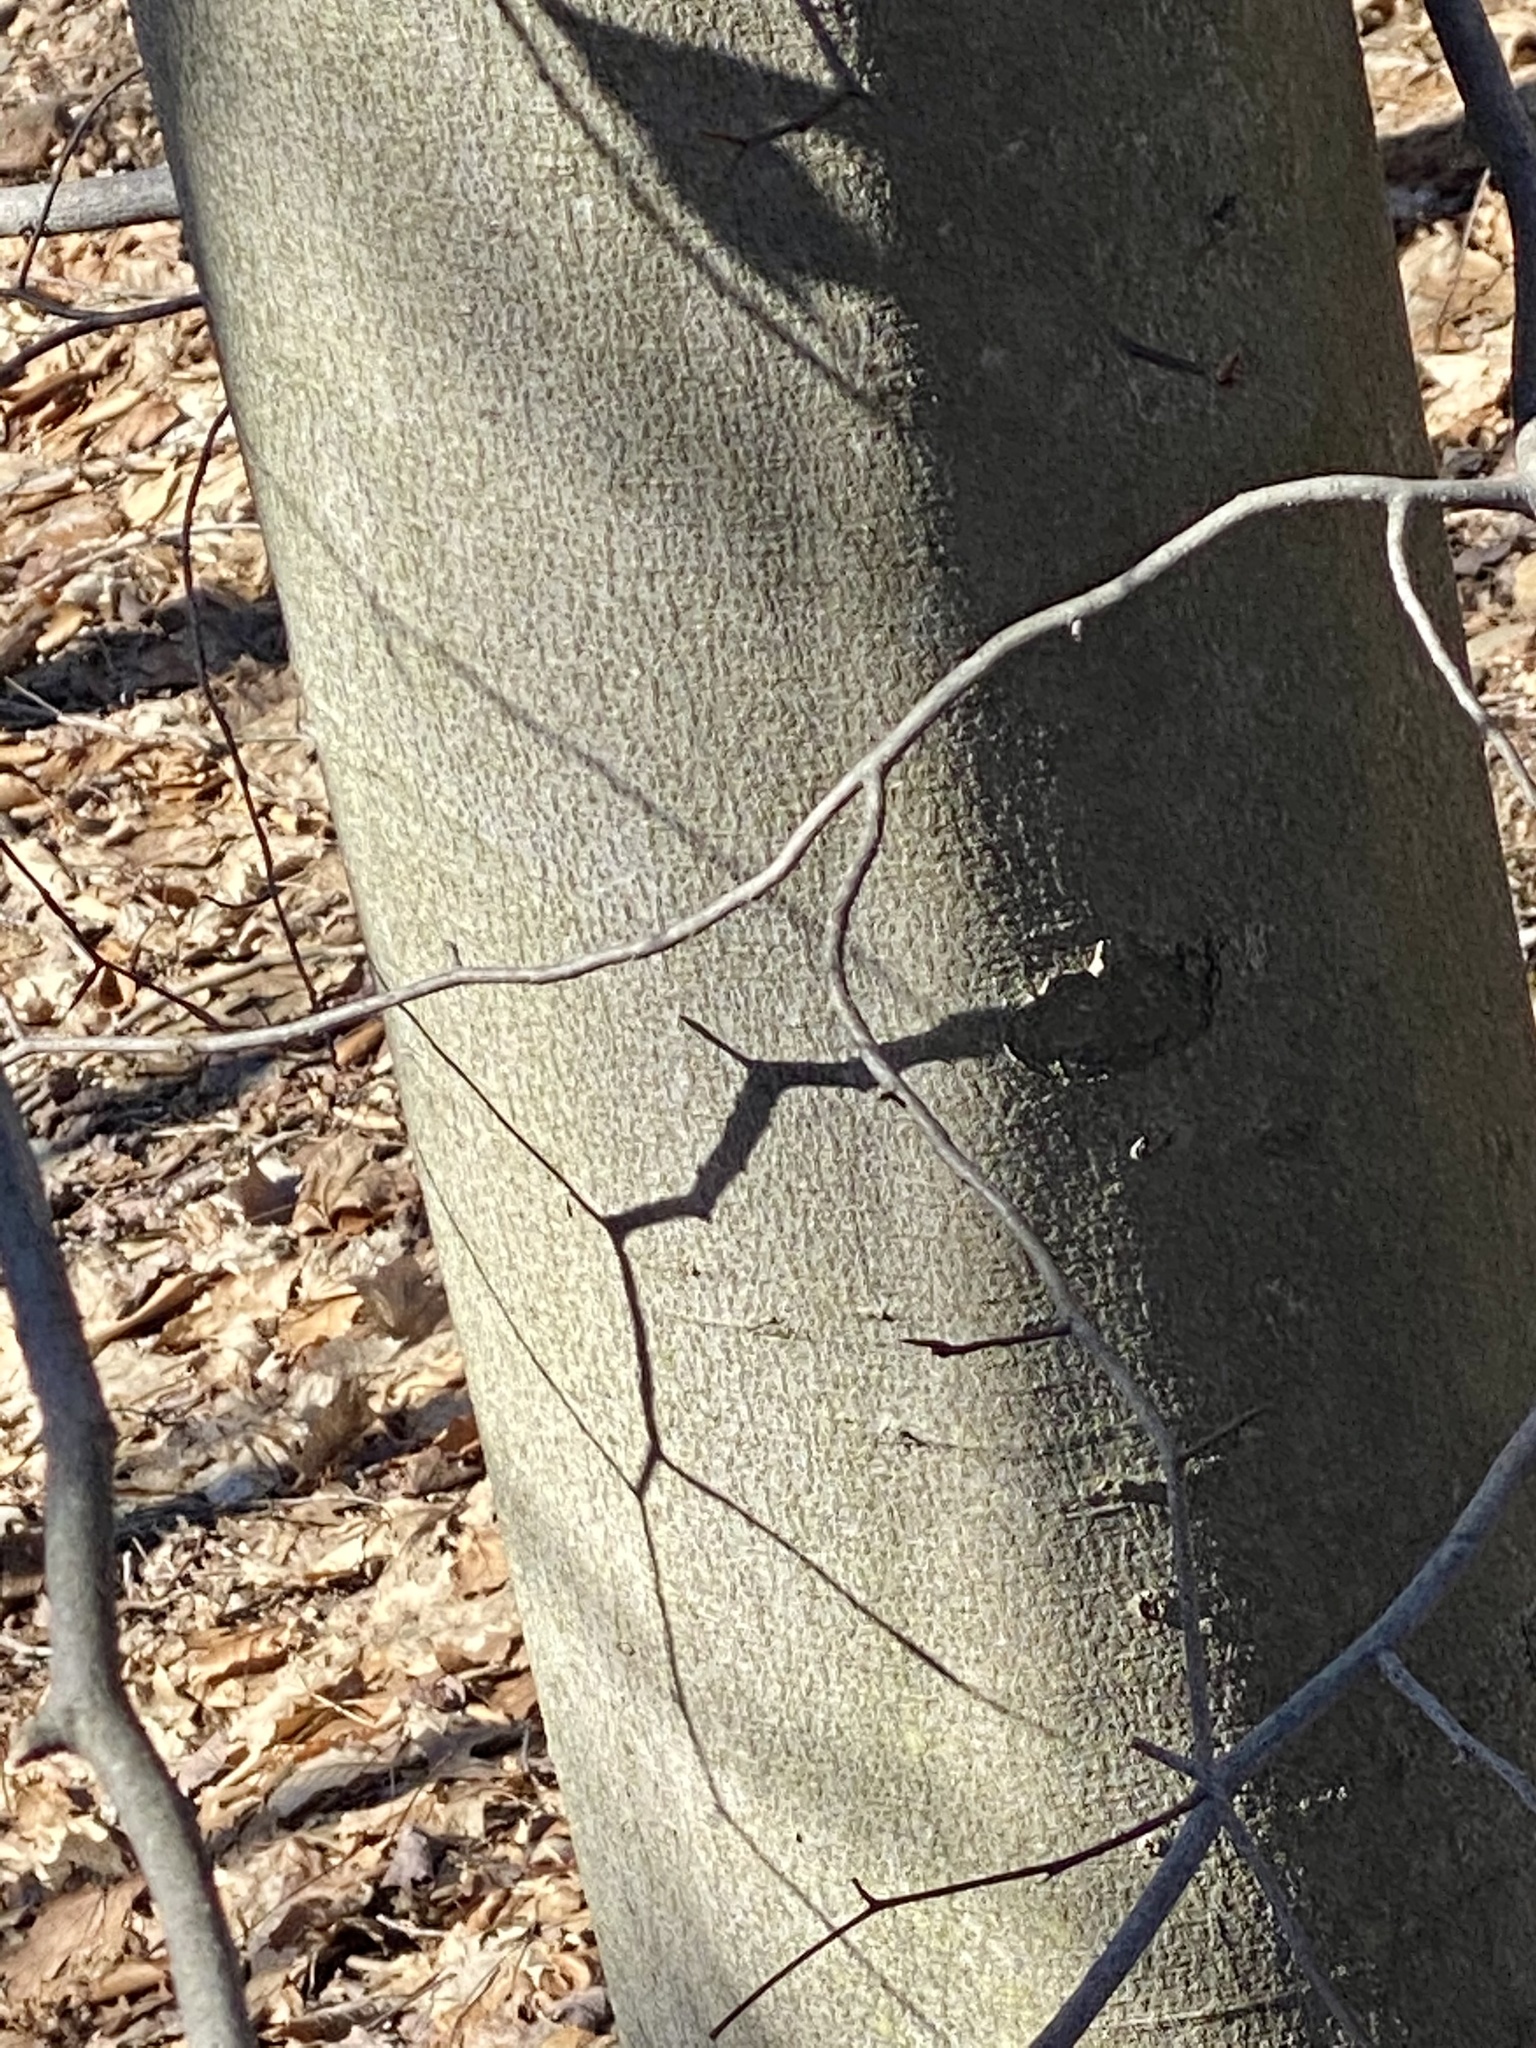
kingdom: Plantae
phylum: Tracheophyta
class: Magnoliopsida
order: Fagales
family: Fagaceae
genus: Fagus
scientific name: Fagus grandifolia
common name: American beech
